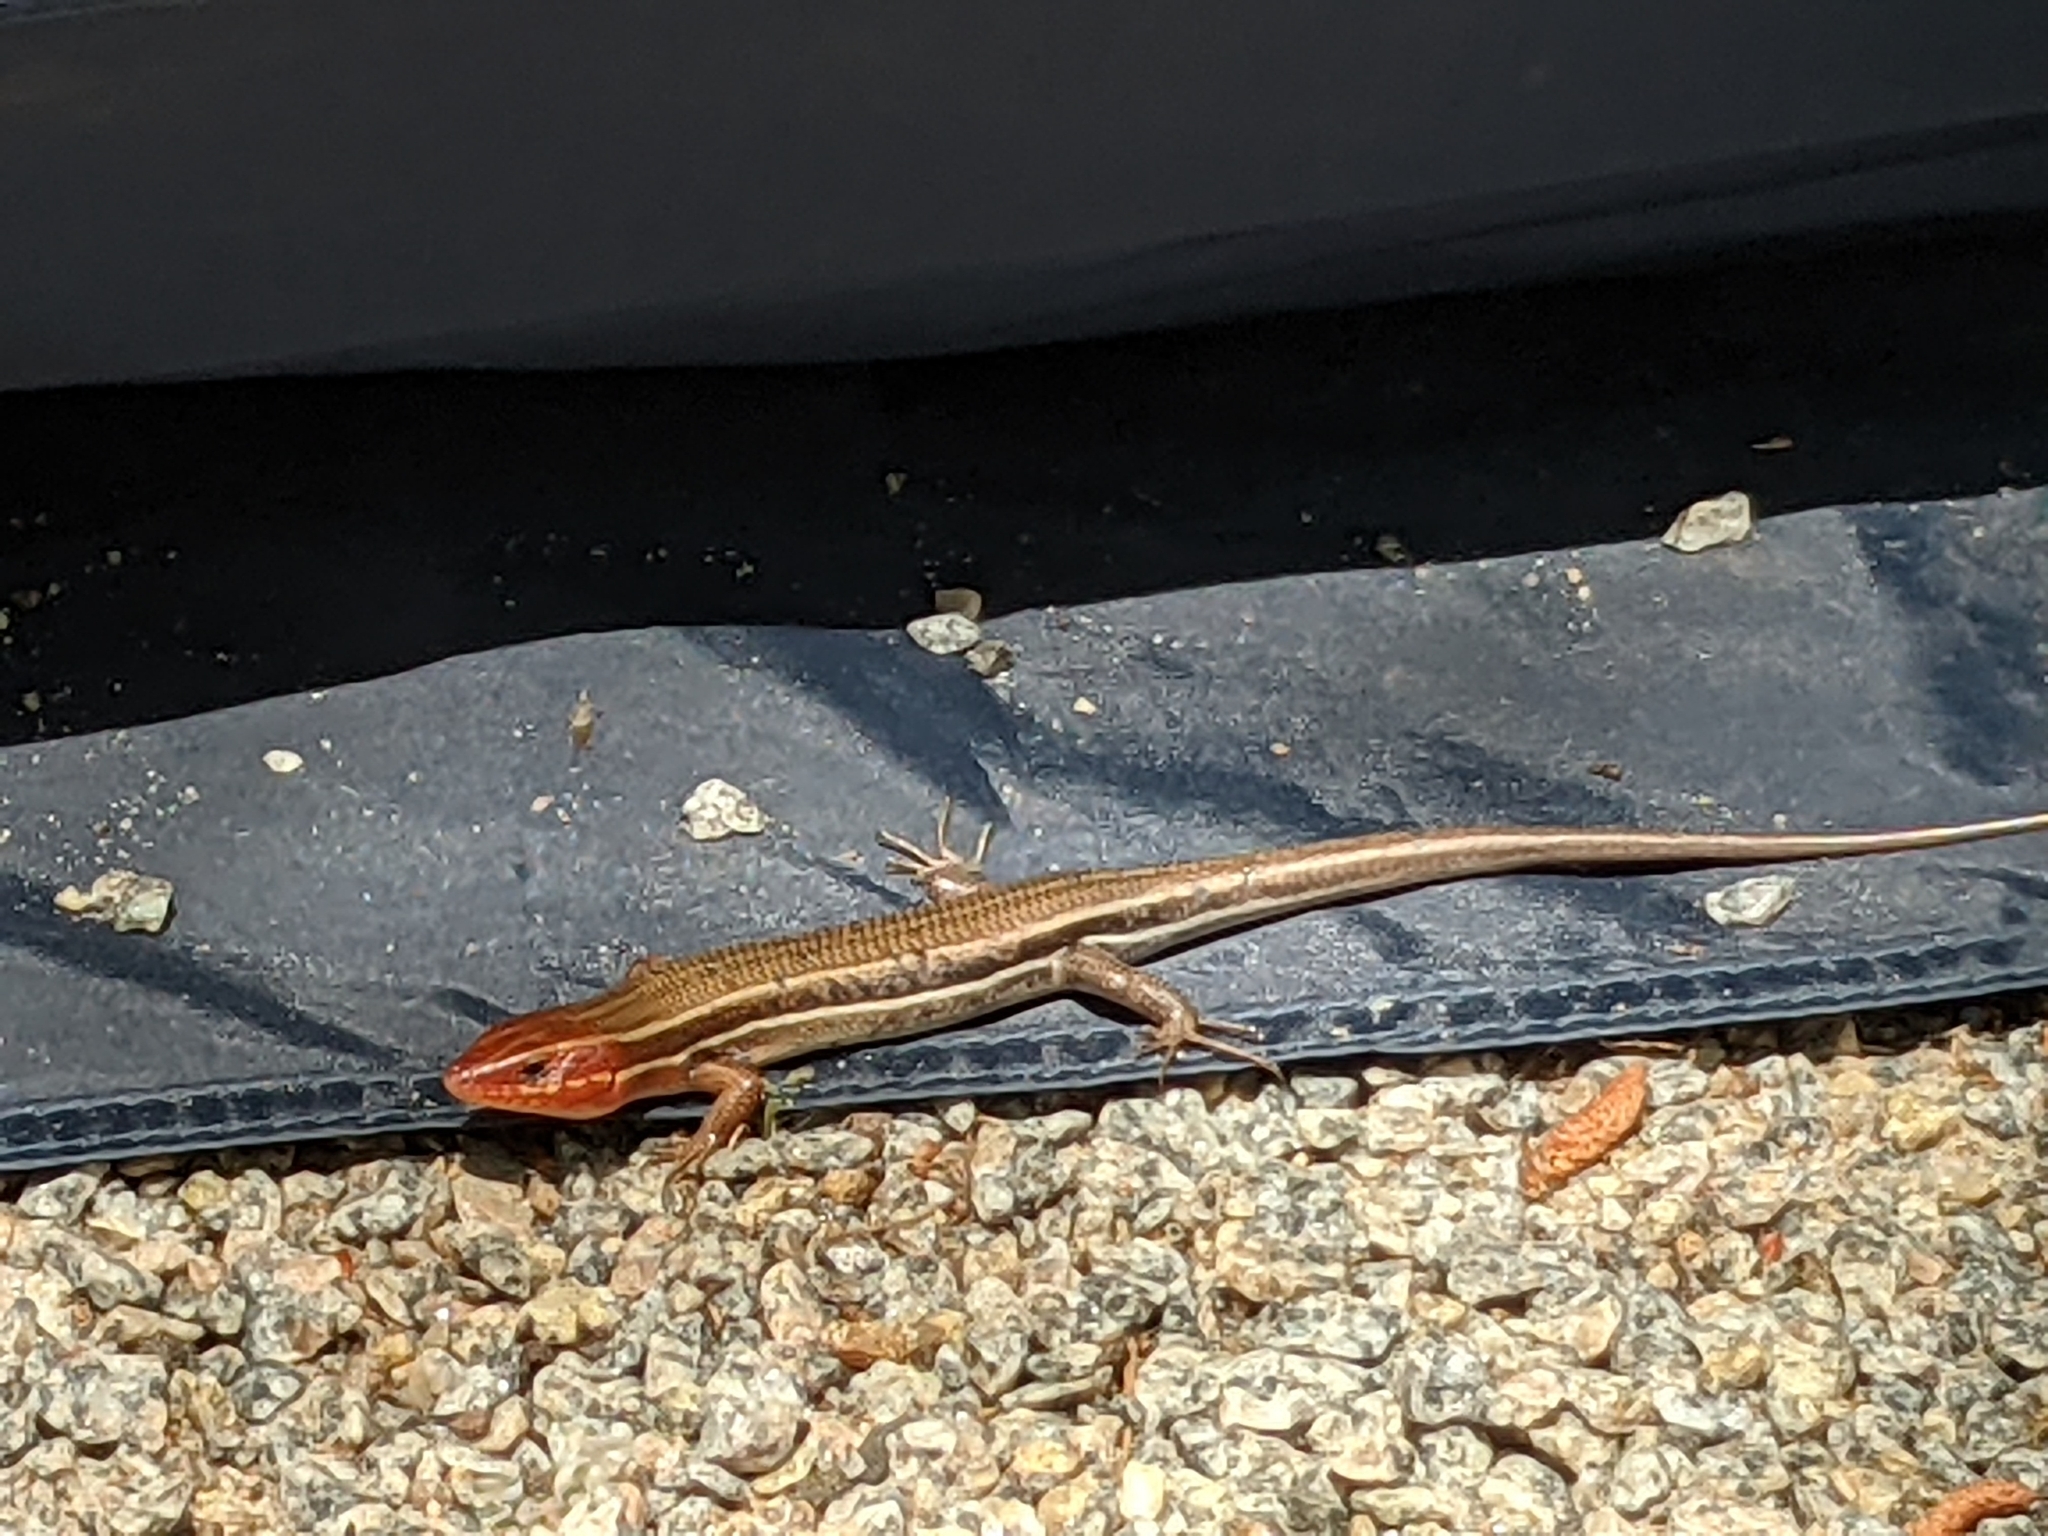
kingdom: Animalia
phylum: Chordata
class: Squamata
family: Scincidae
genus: Plestiodon
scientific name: Plestiodon inexpectatus
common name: Southeastern five-lined skink
